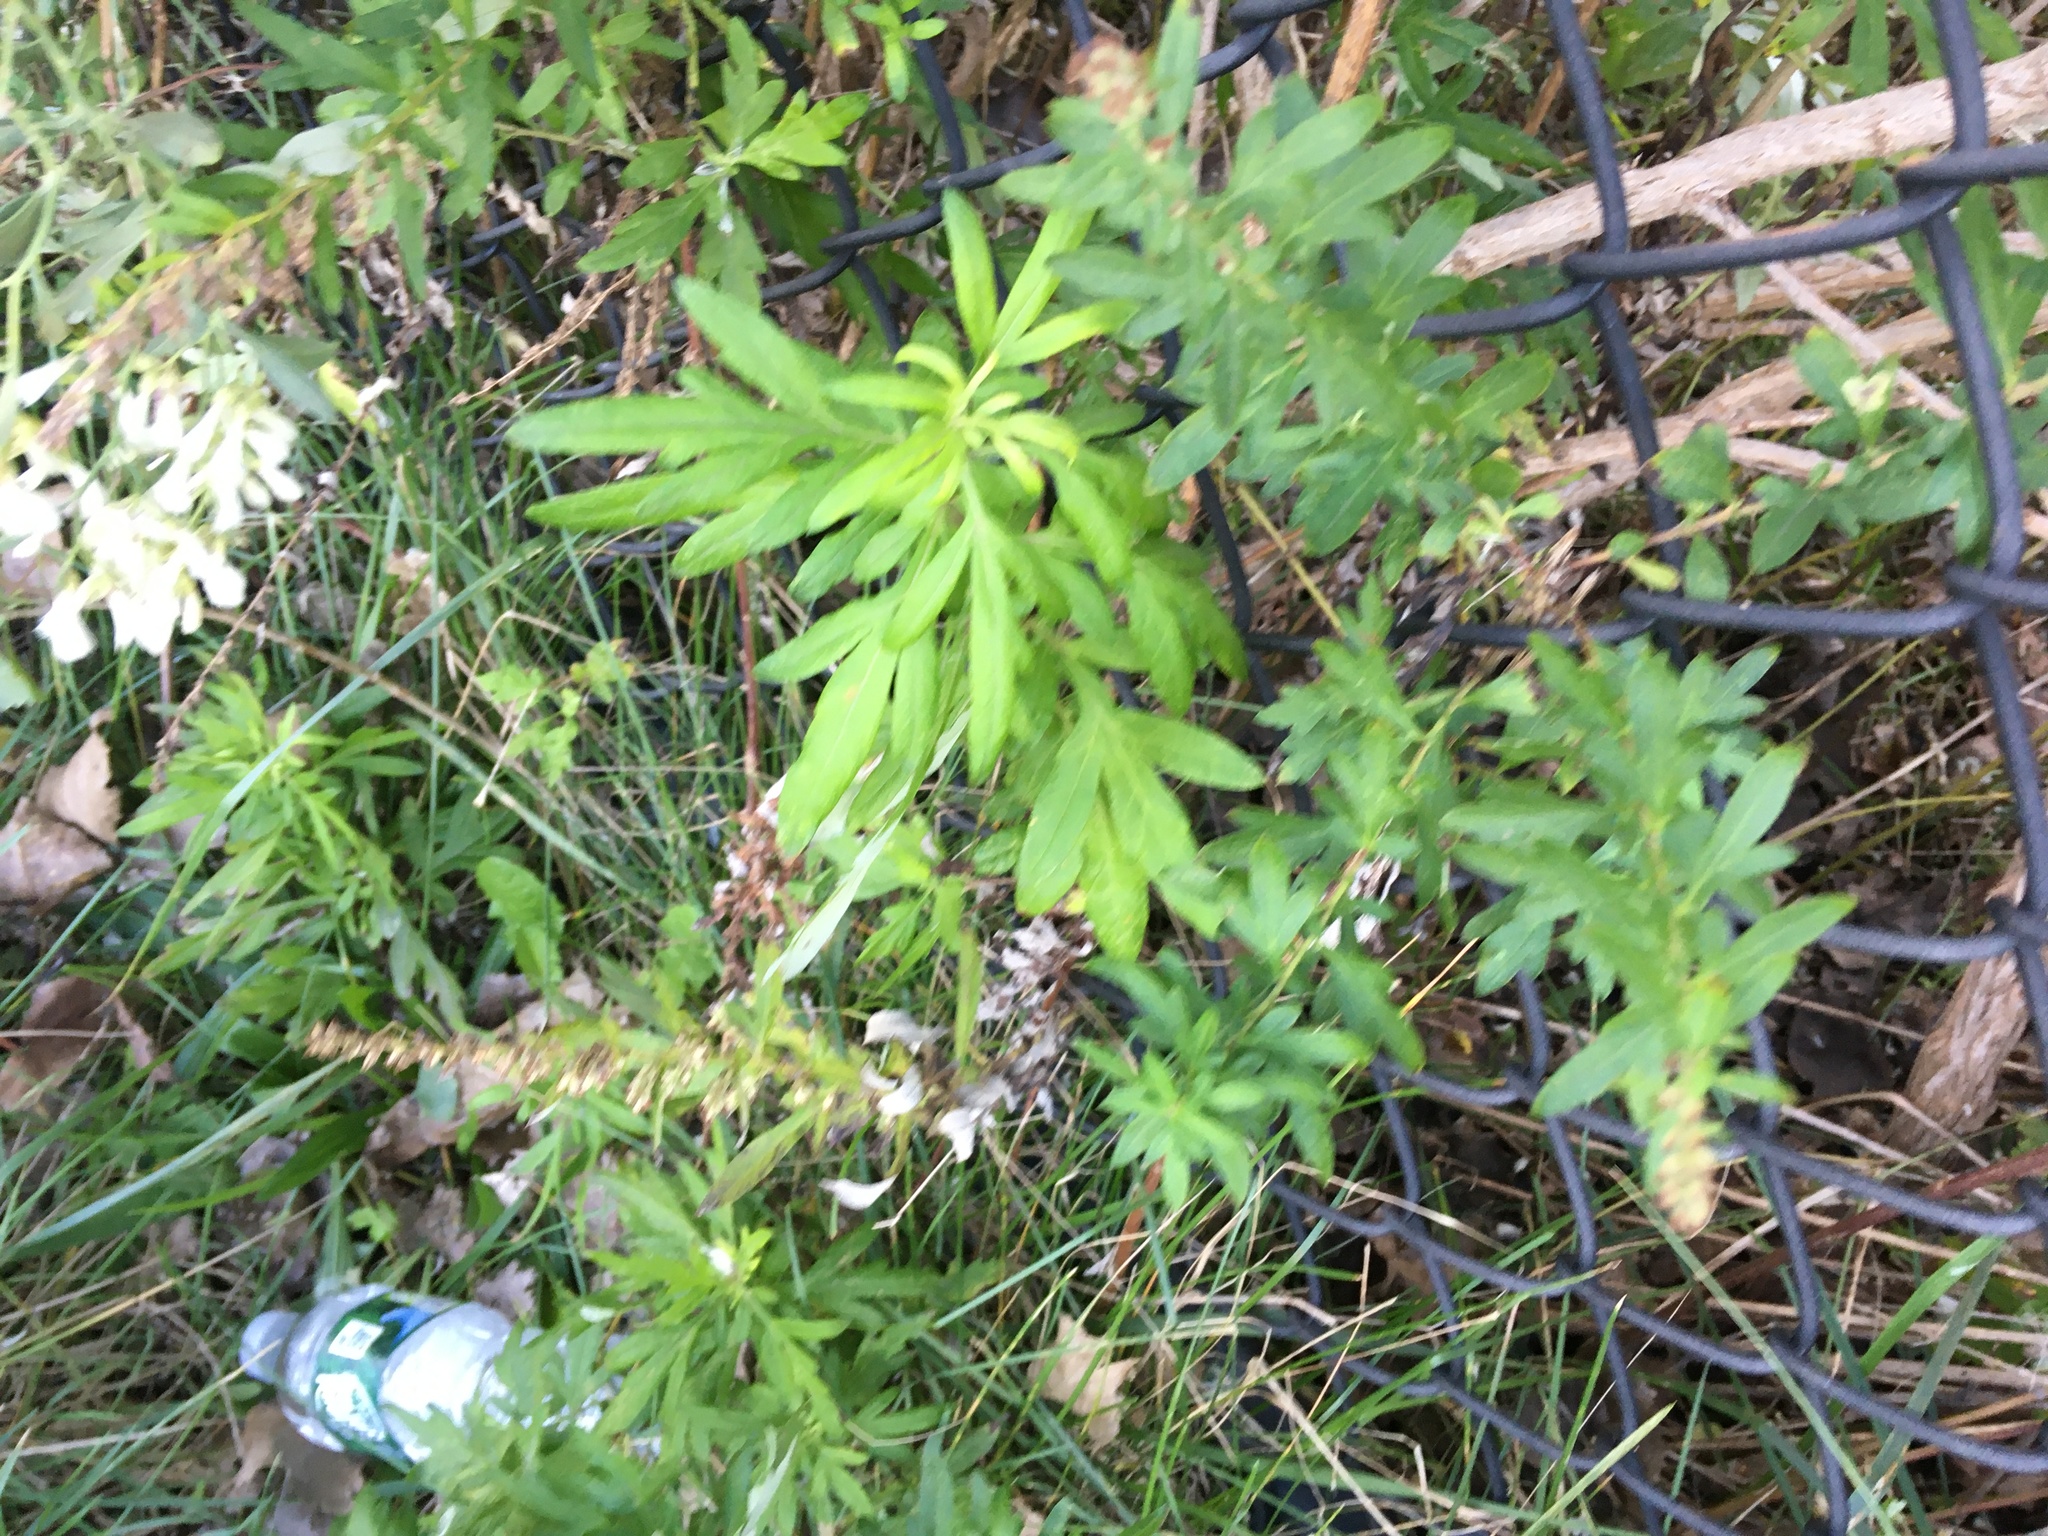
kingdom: Plantae
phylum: Tracheophyta
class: Magnoliopsida
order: Asterales
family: Asteraceae
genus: Artemisia
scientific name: Artemisia vulgaris
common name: Mugwort
